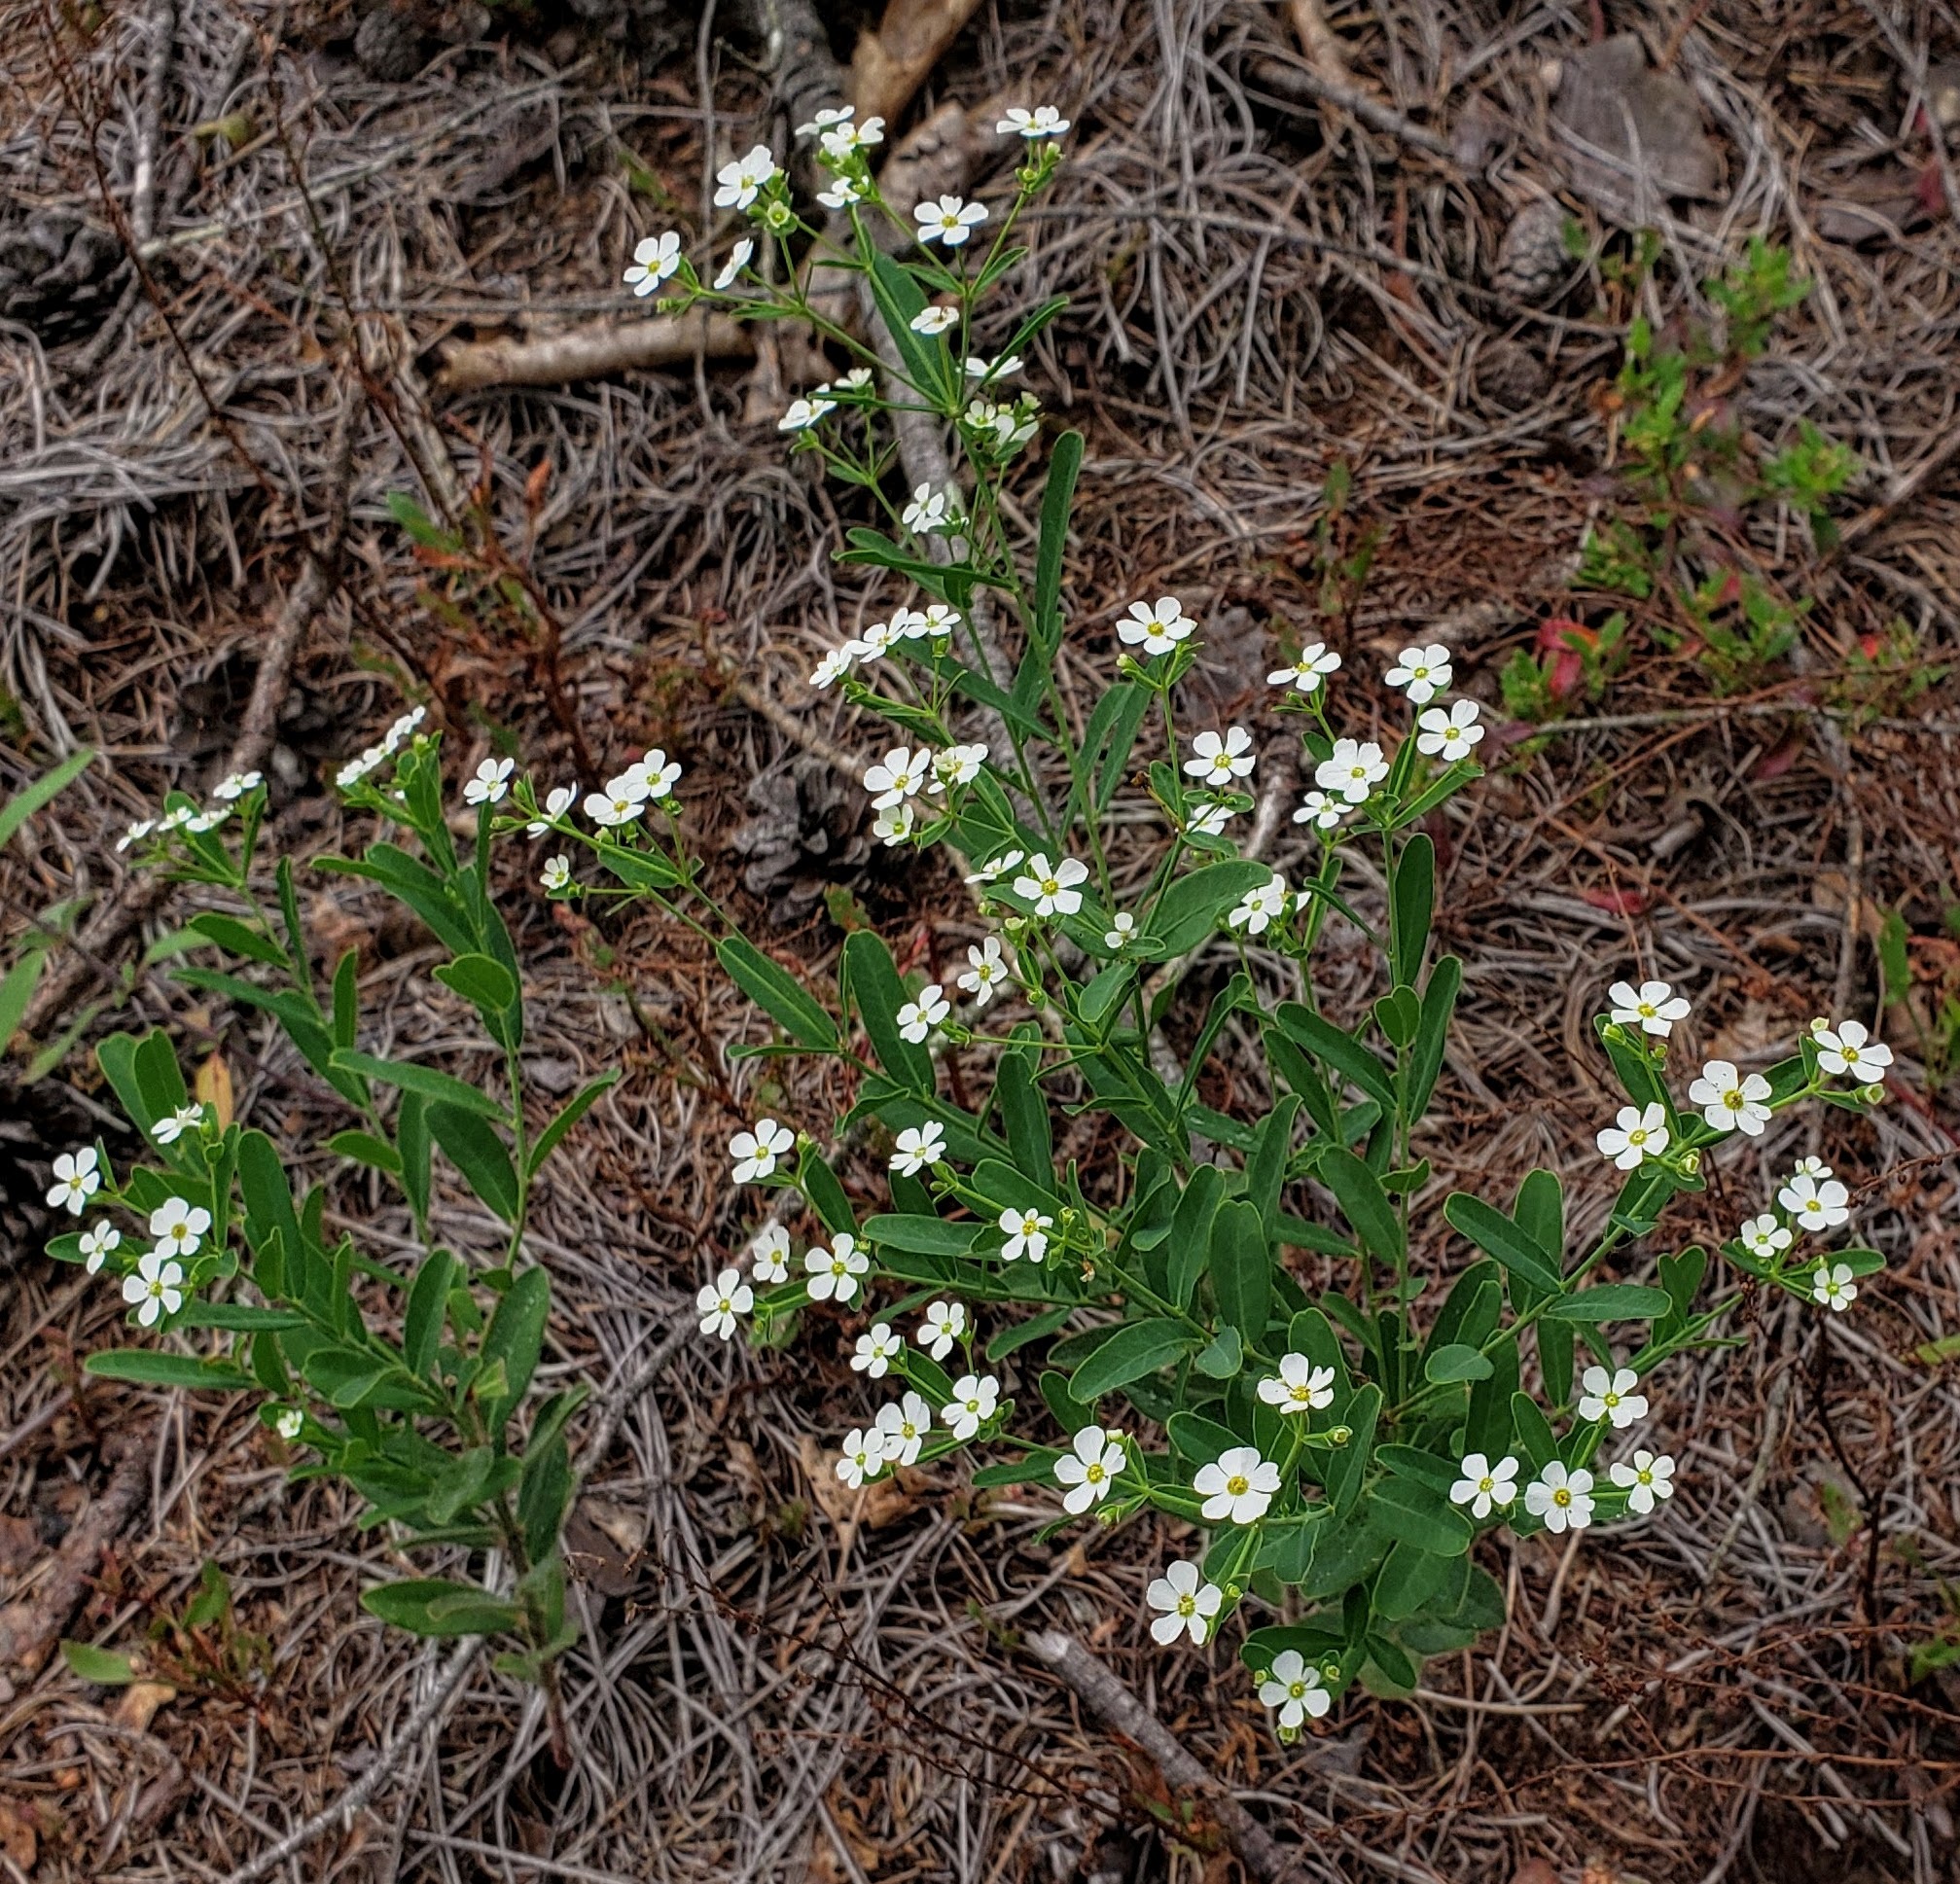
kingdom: Plantae
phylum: Tracheophyta
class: Magnoliopsida
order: Malpighiales
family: Euphorbiaceae
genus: Euphorbia
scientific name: Euphorbia corollata
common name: Flowering spurge
